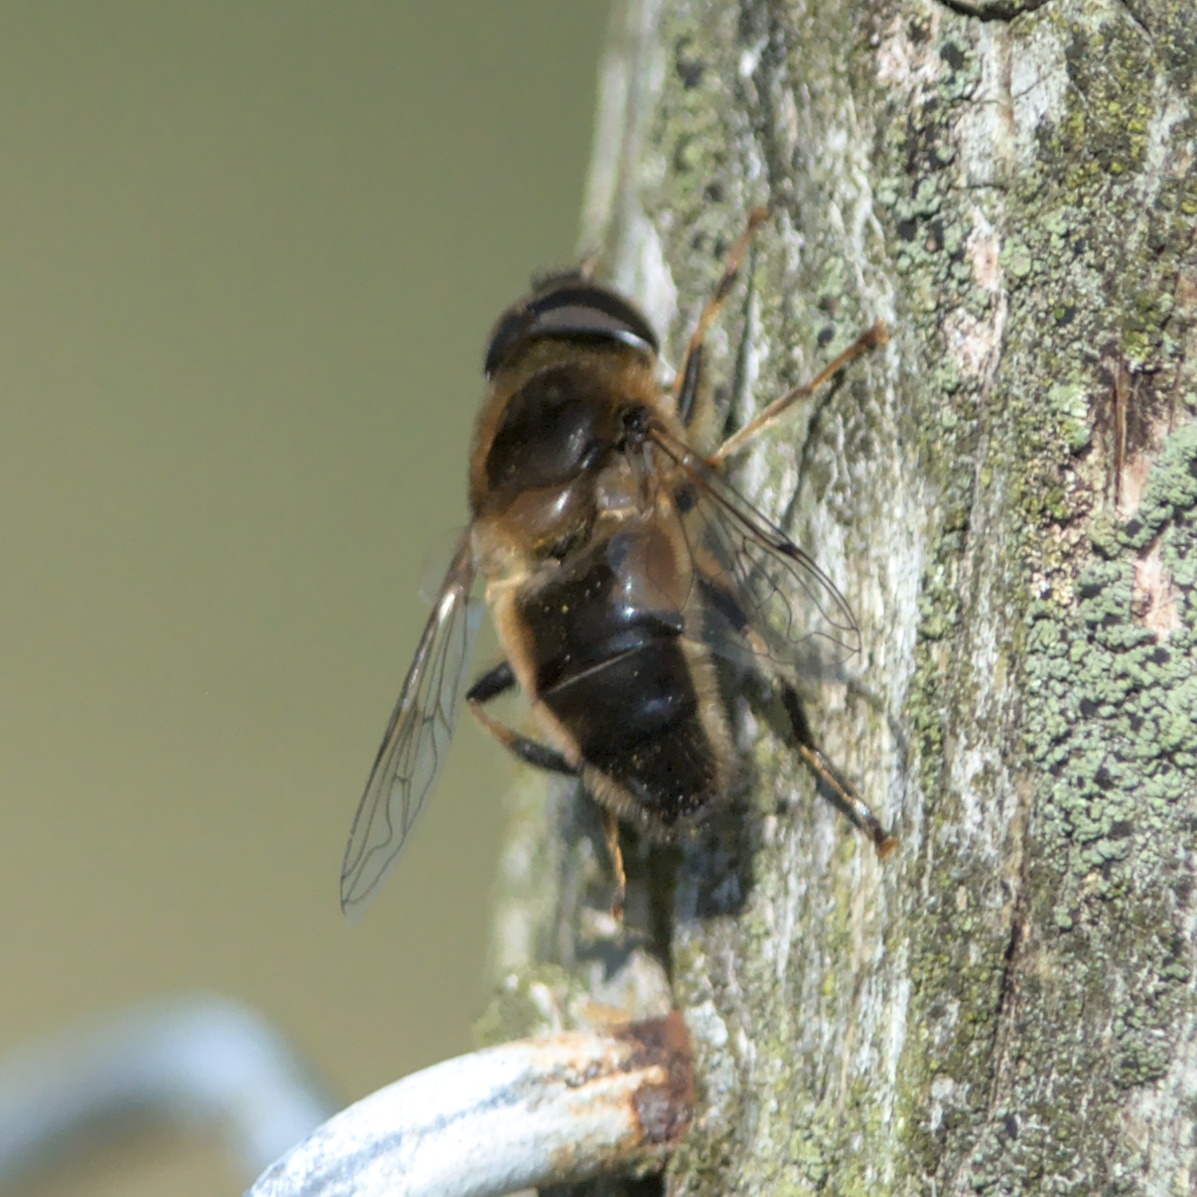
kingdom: Animalia
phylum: Arthropoda
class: Insecta
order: Diptera
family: Syrphidae
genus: Eristalis
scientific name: Eristalis pertinax
